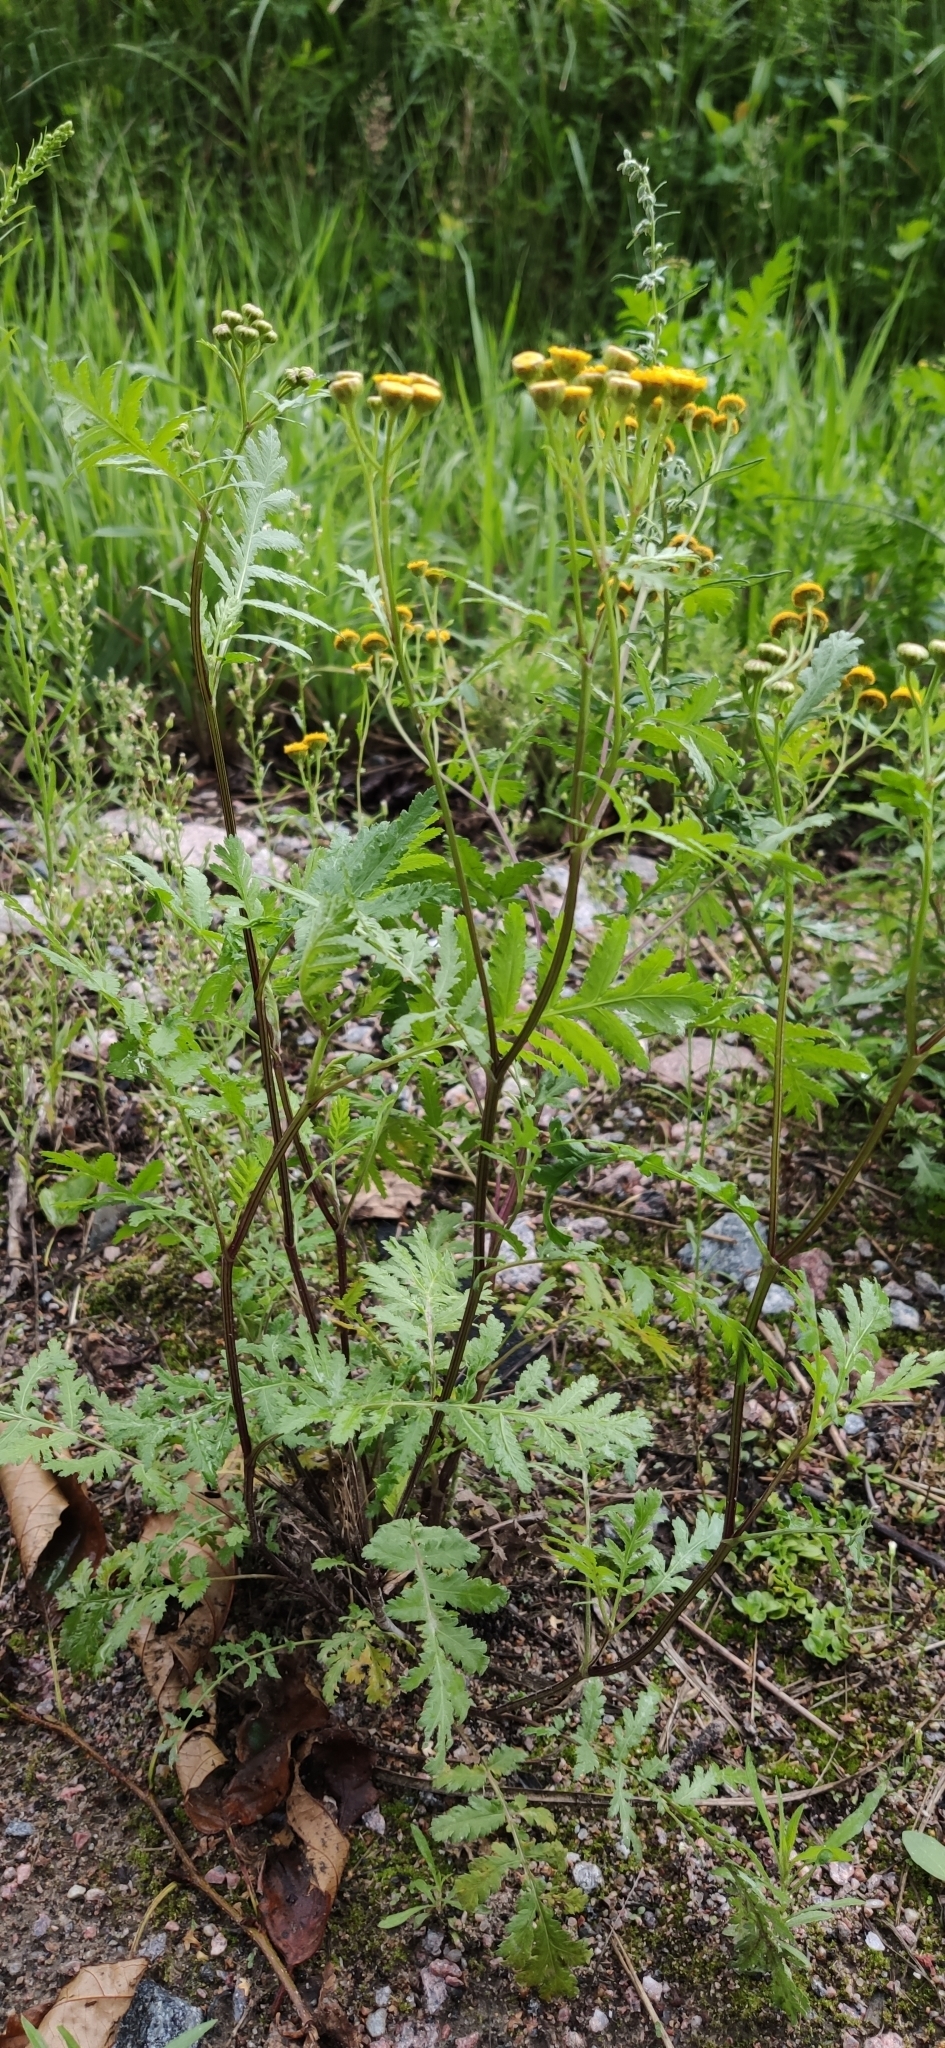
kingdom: Plantae
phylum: Tracheophyta
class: Magnoliopsida
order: Asterales
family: Asteraceae
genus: Tanacetum
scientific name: Tanacetum vulgare
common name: Common tansy
